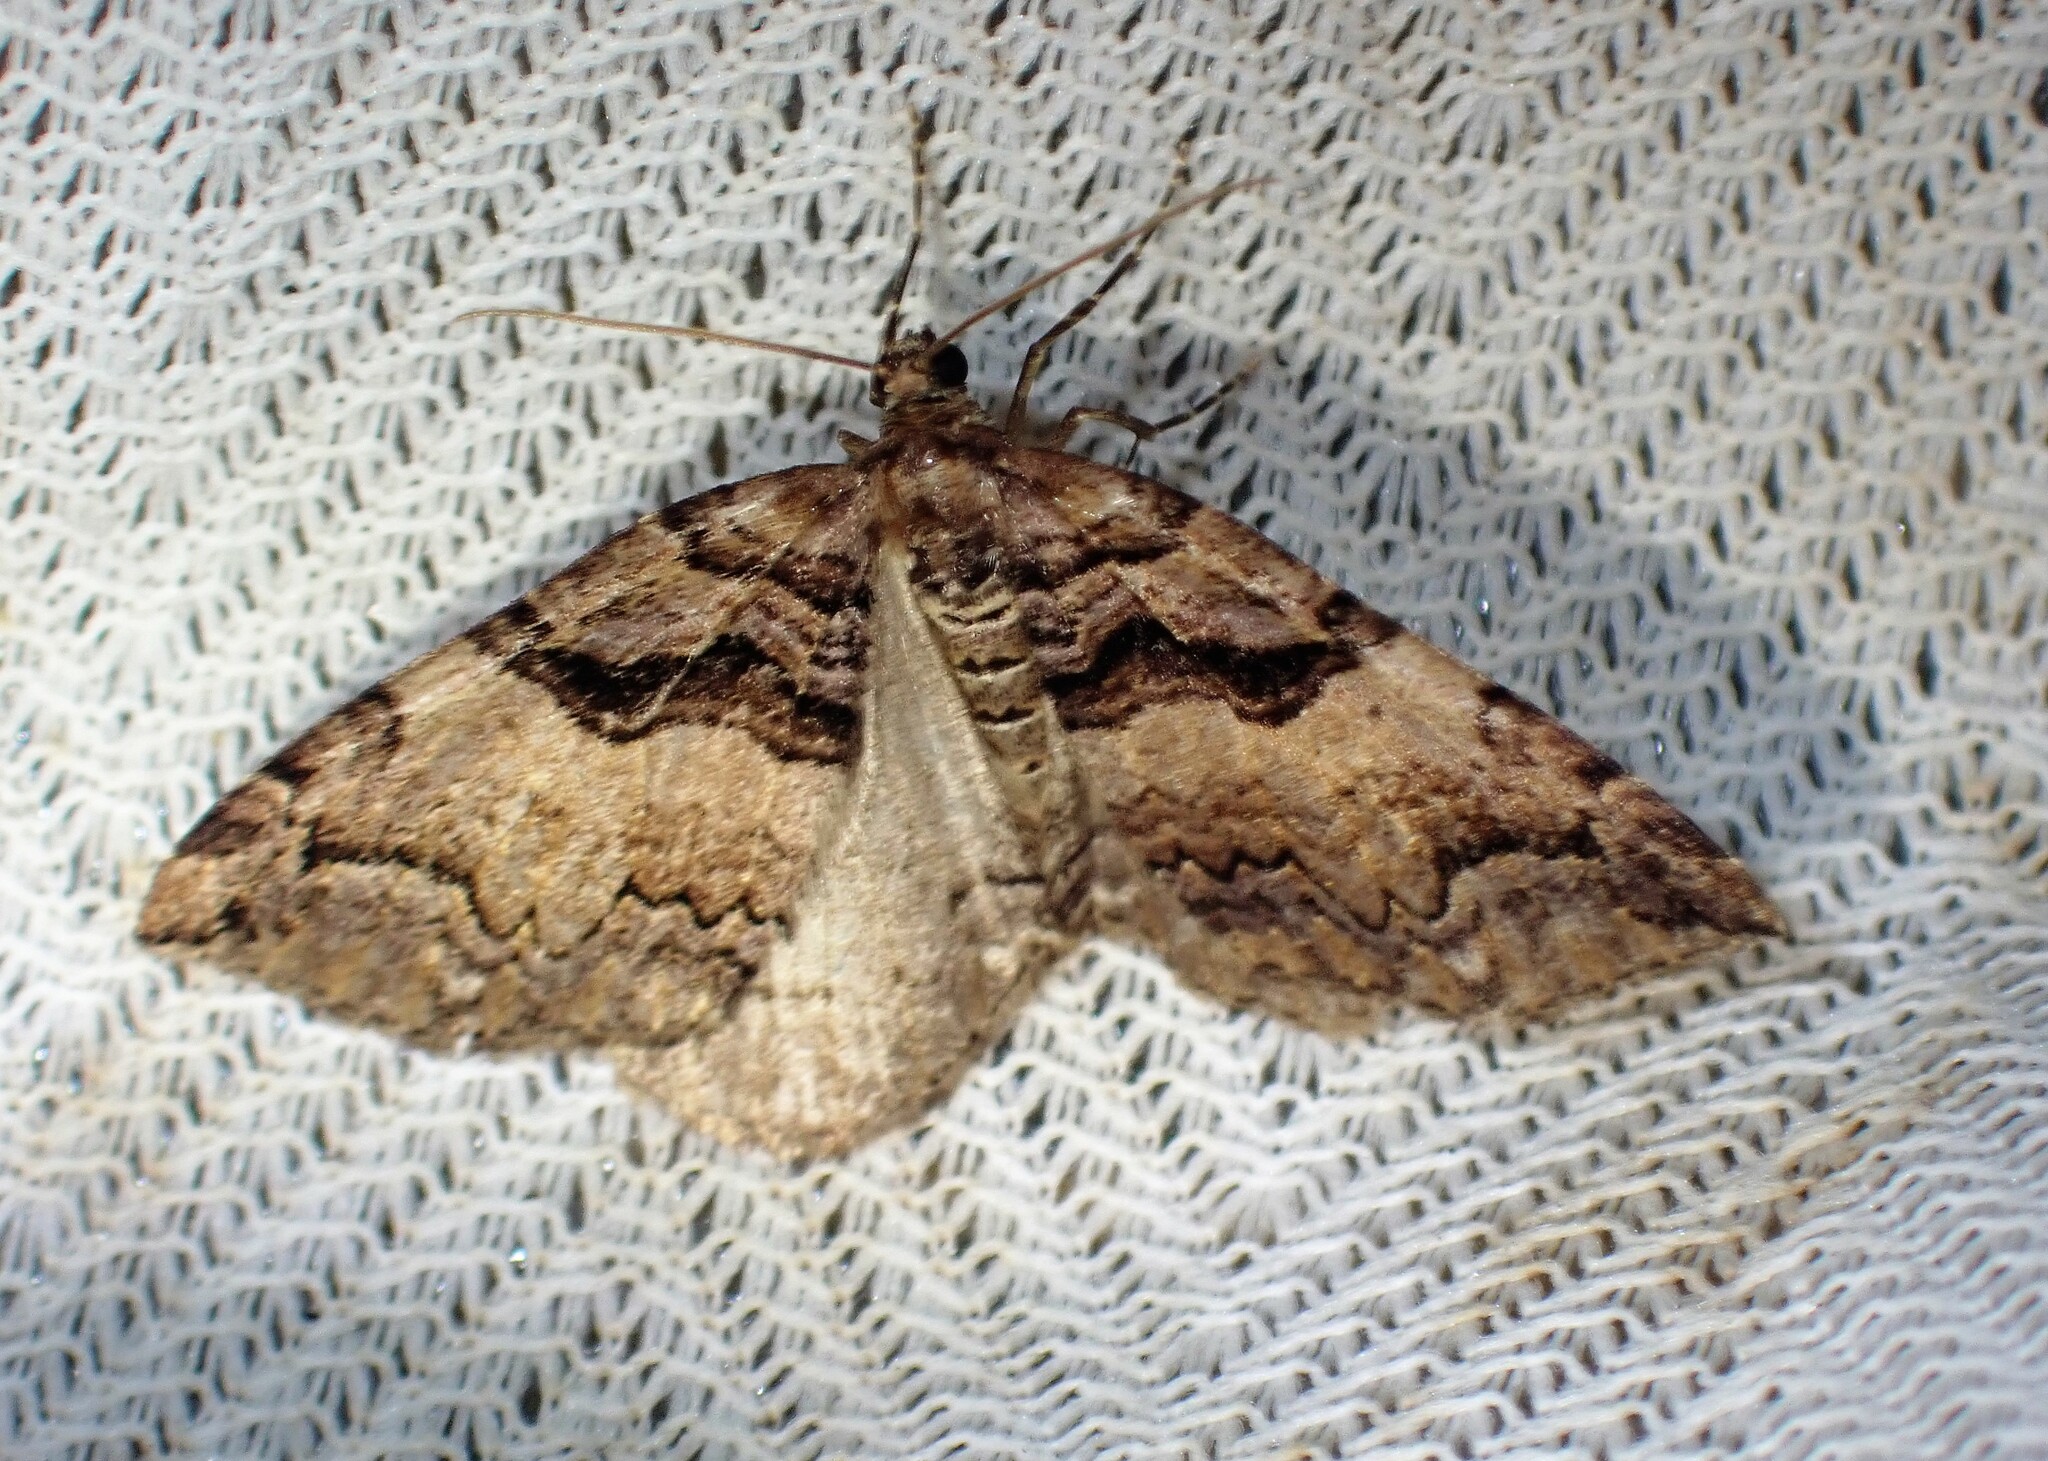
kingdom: Animalia
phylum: Arthropoda
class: Insecta
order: Lepidoptera
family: Geometridae
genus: Anticlea
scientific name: Anticlea vasiliata
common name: Variable carpet
